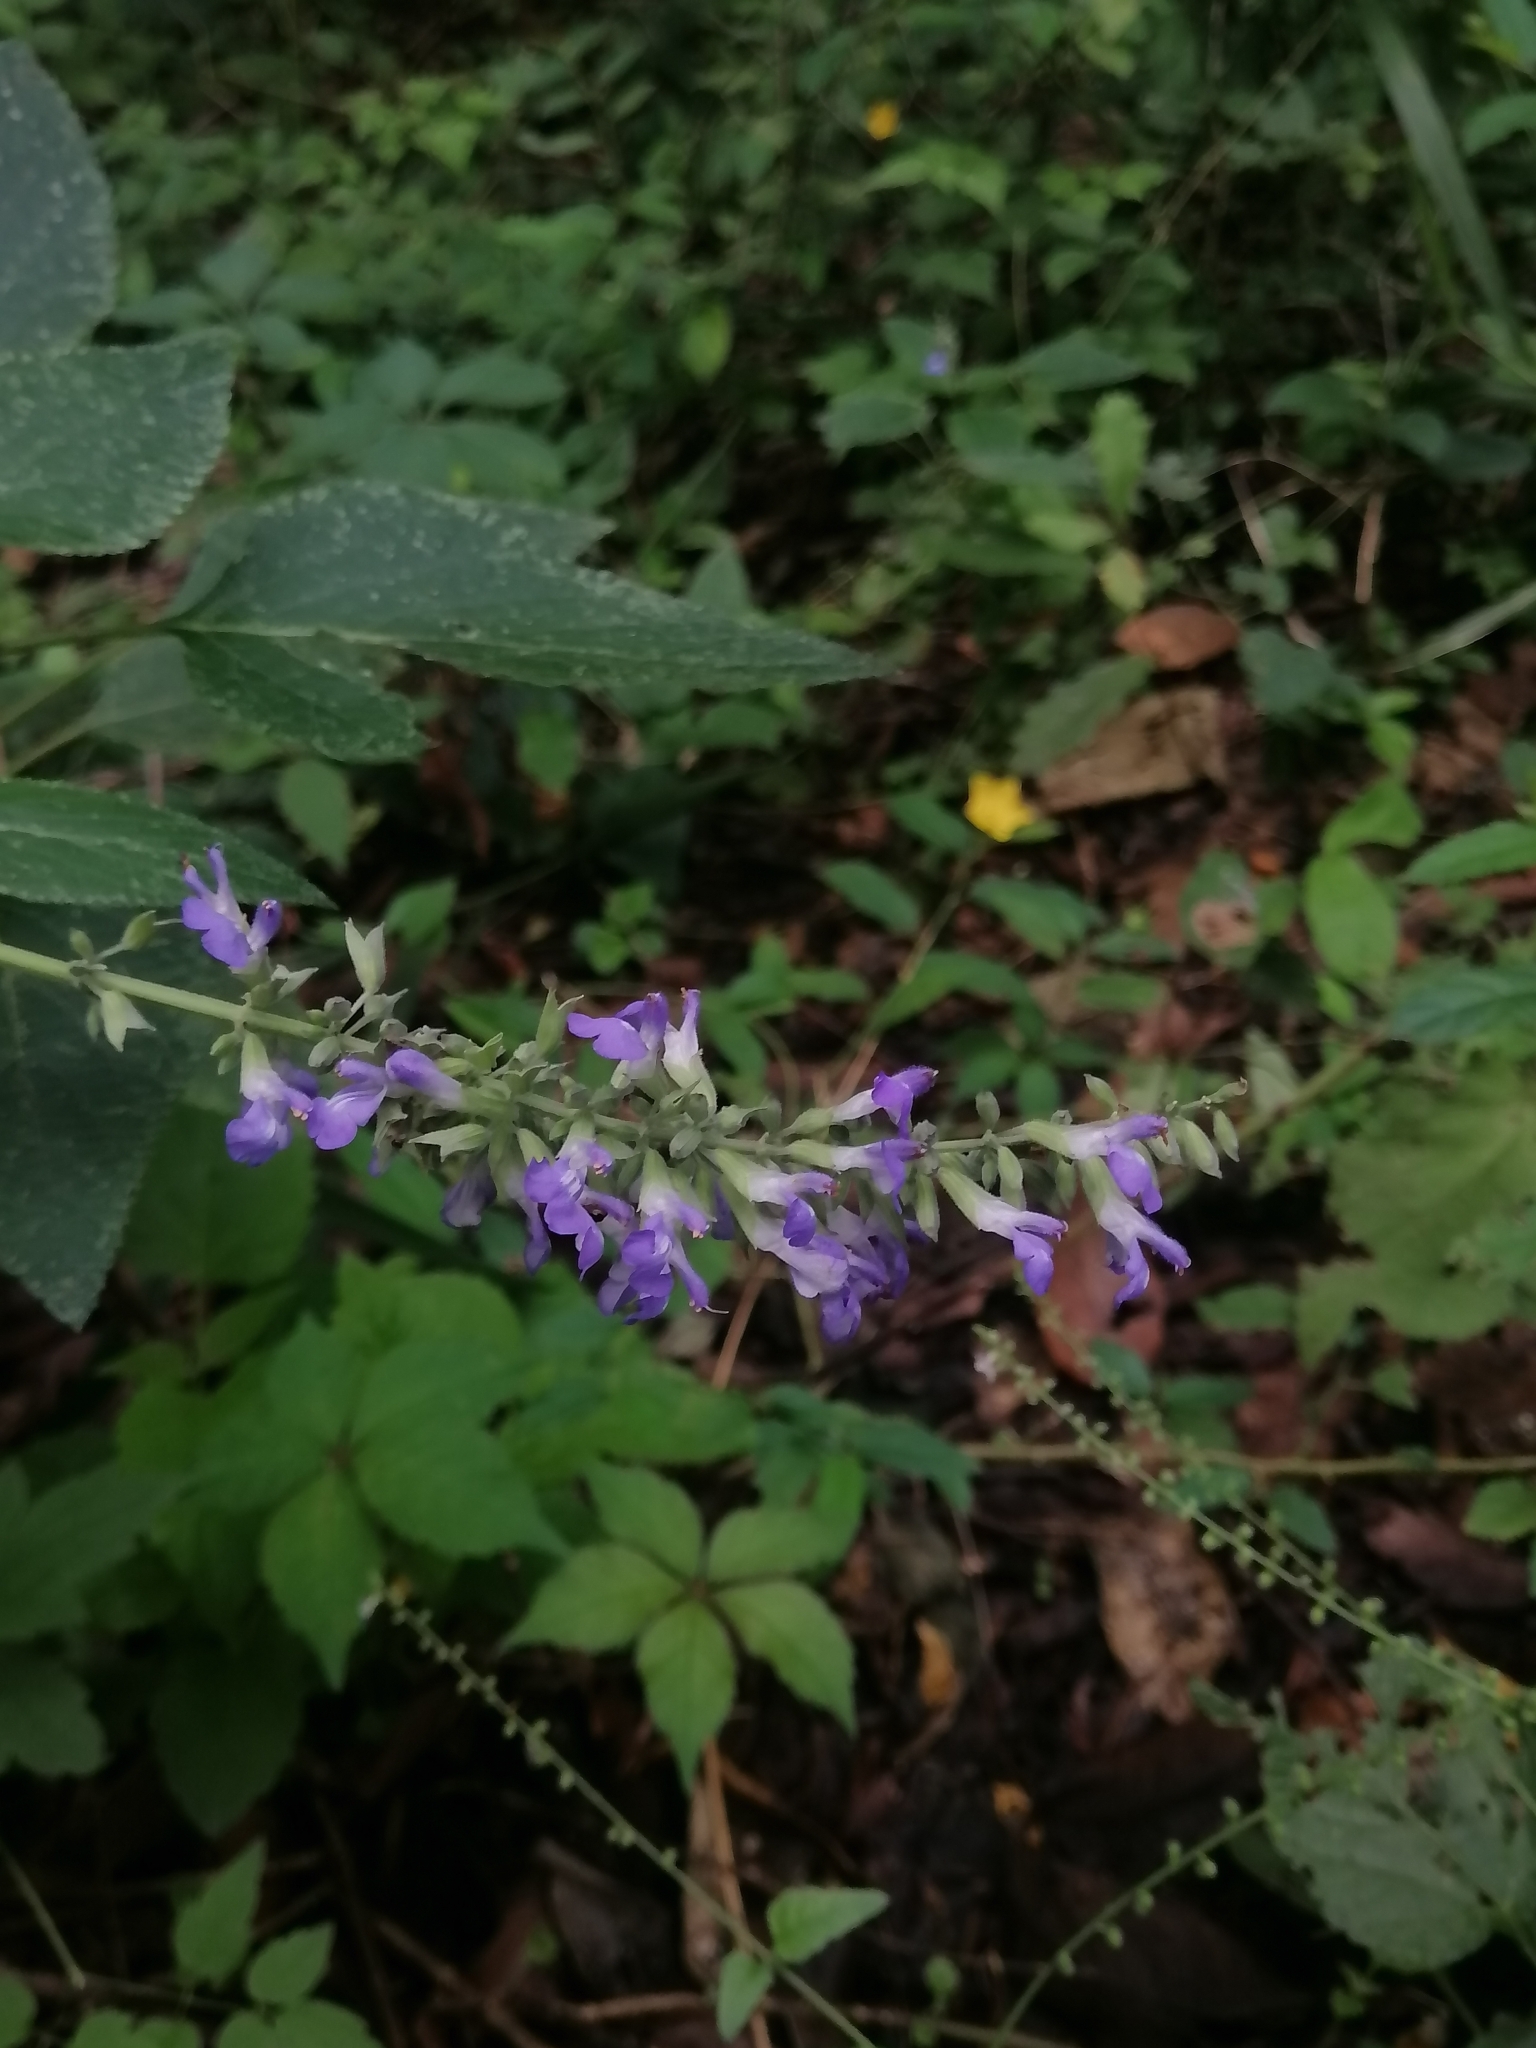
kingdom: Plantae
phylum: Tracheophyta
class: Magnoliopsida
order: Lamiales
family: Lamiaceae
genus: Salvia
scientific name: Salvia urolepis
